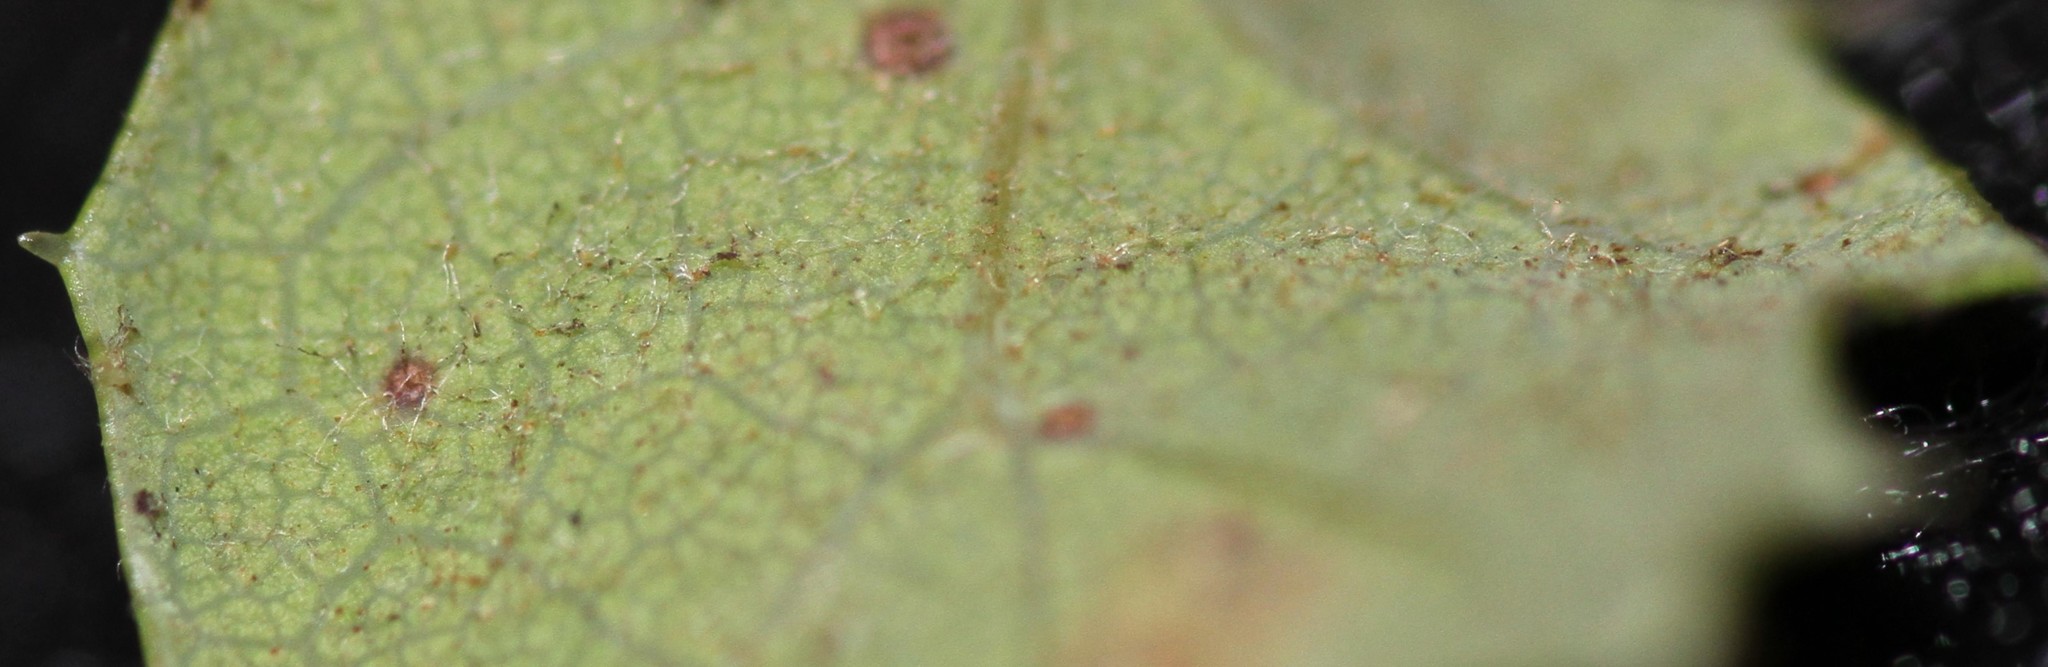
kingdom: Plantae
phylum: Tracheophyta
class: Magnoliopsida
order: Fagales
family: Fagaceae
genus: Quercus
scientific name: Quercus dumosa
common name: Coastal sage scrub oak
